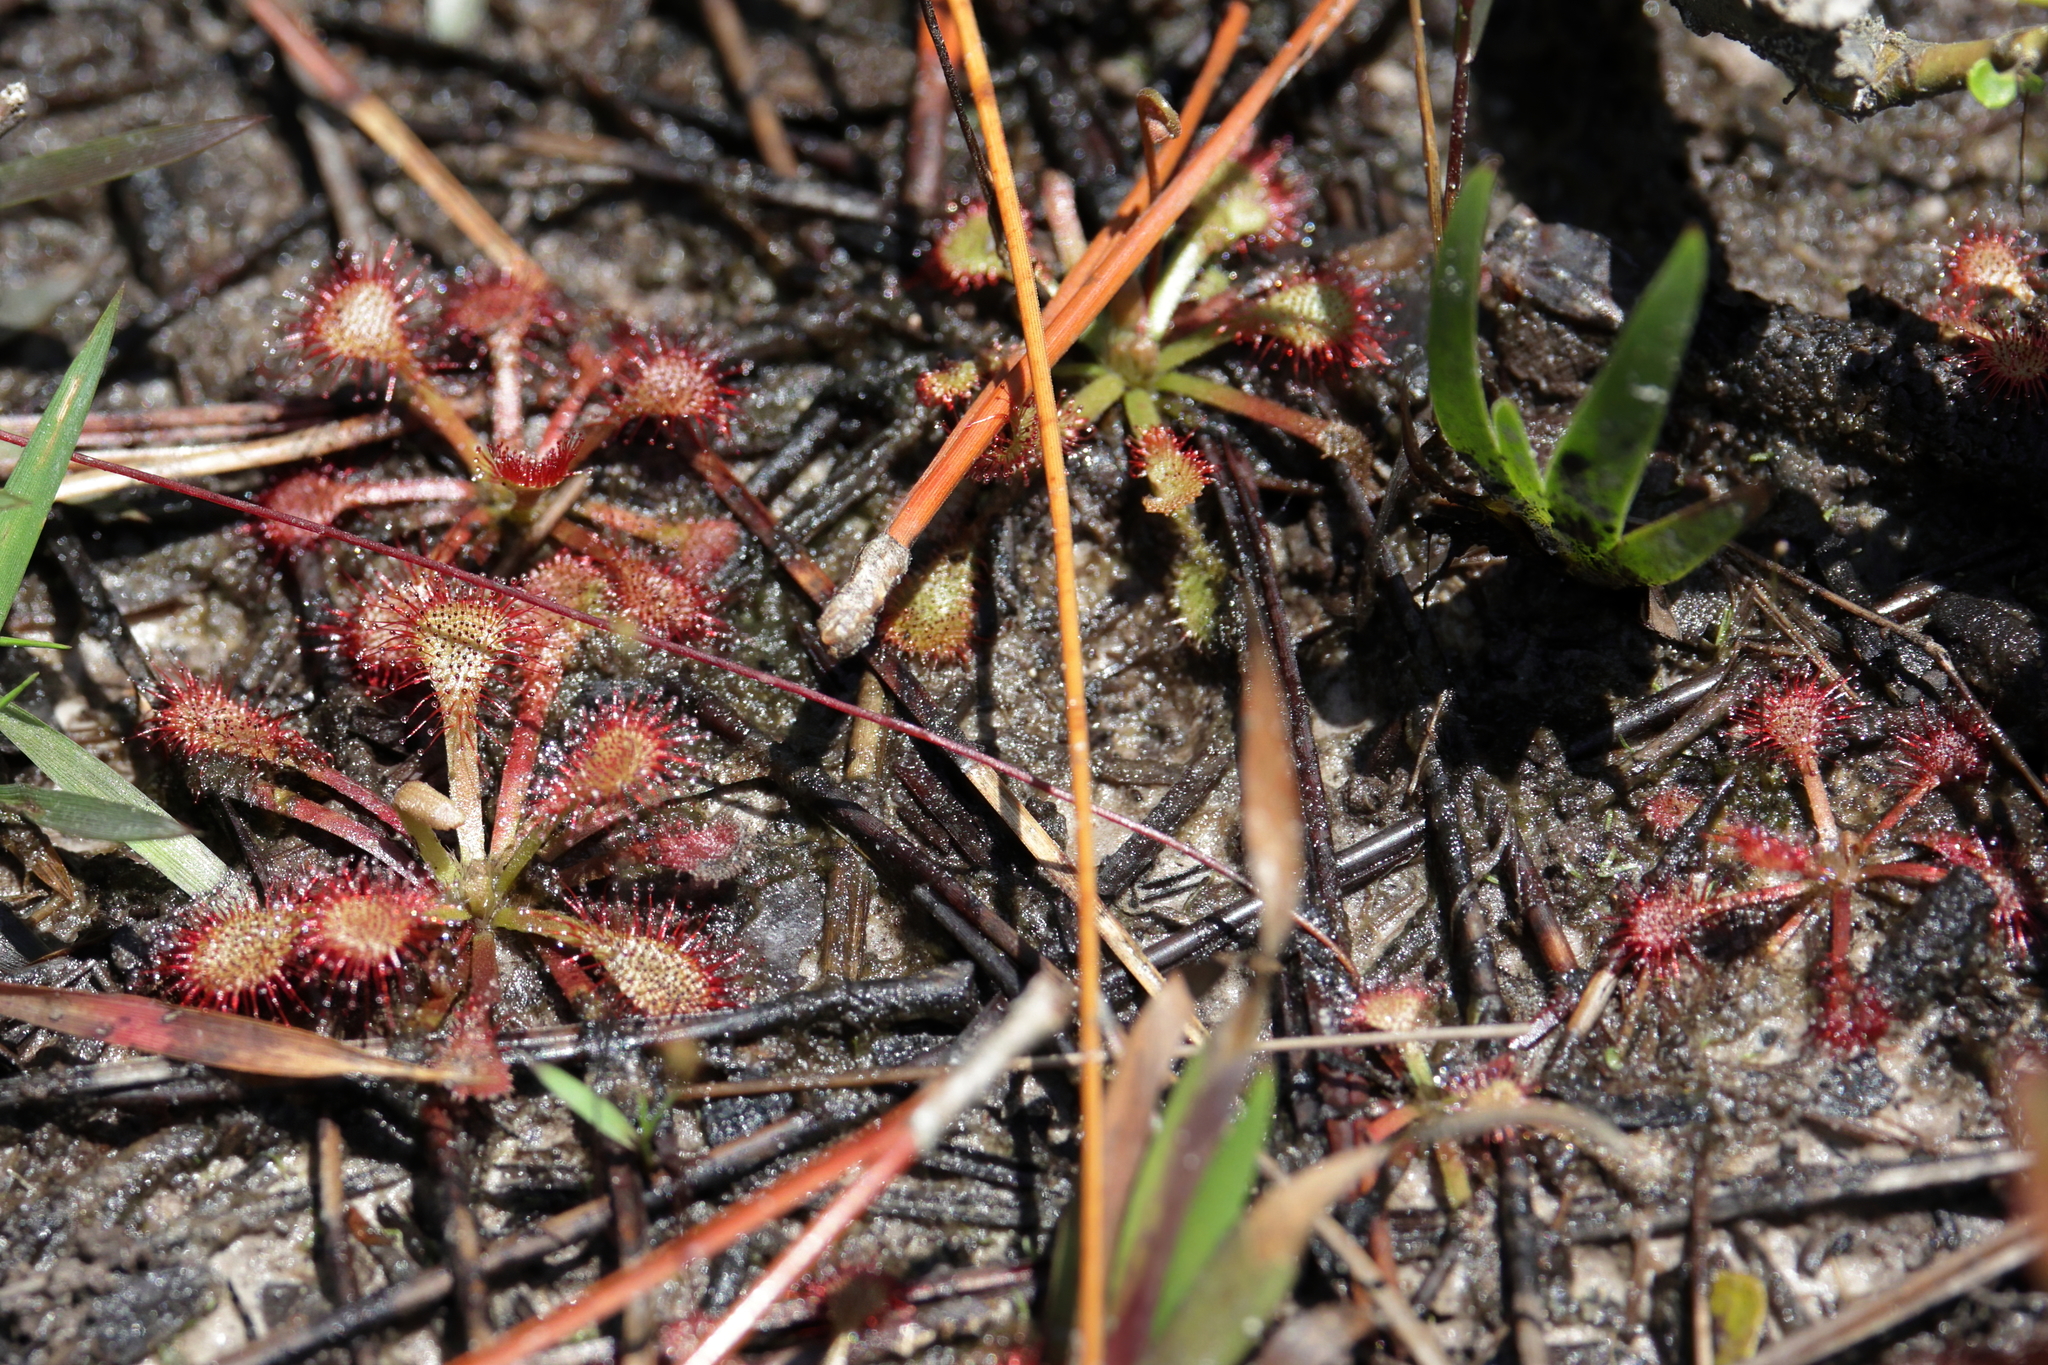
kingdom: Plantae
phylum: Tracheophyta
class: Magnoliopsida
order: Caryophyllales
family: Droseraceae
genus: Drosera
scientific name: Drosera capillaris
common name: Pink sundew
